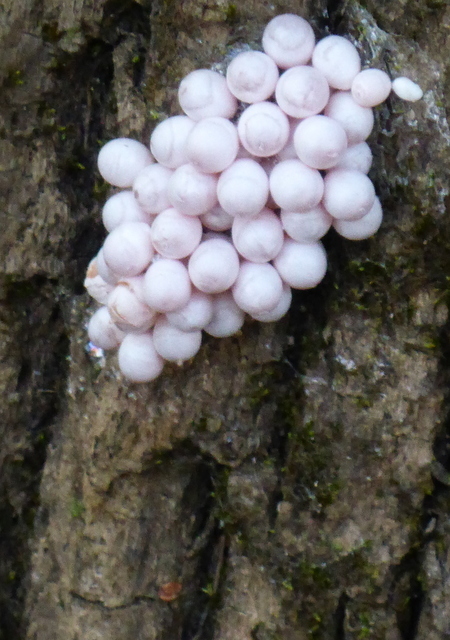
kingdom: Animalia
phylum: Mollusca
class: Gastropoda
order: Architaenioglossa
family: Ampullariidae
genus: Pomacea
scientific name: Pomacea paludosa
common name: Florida applesnail
